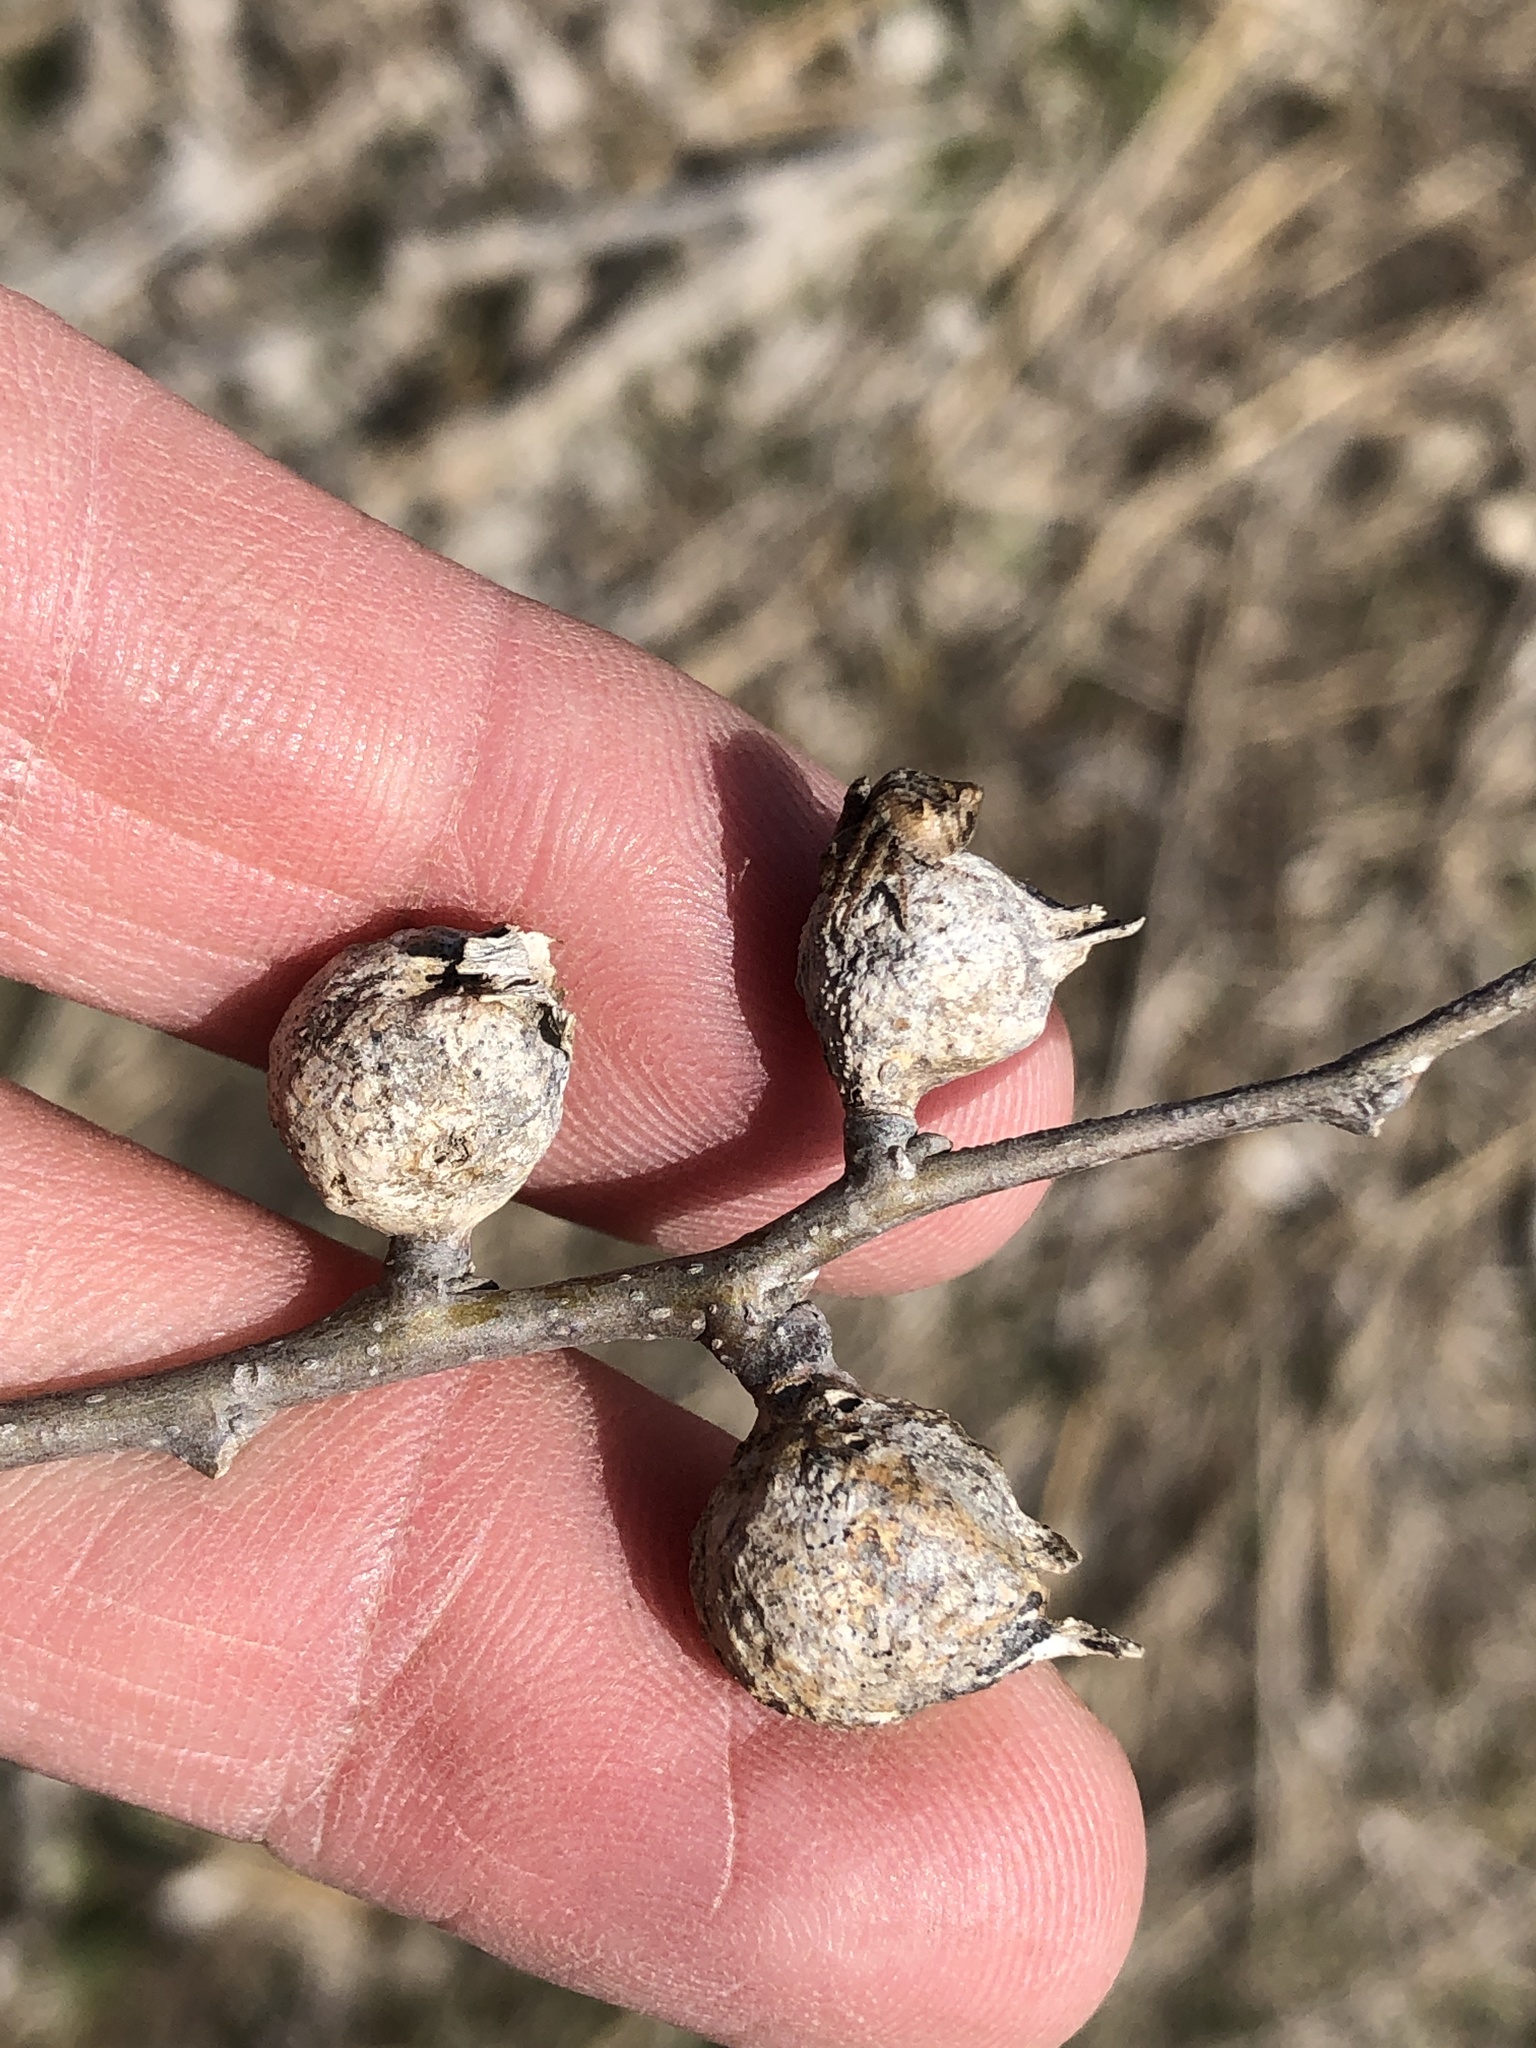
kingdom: Animalia
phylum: Arthropoda
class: Insecta
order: Hemiptera
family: Aphalaridae
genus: Pachypsylla
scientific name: Pachypsylla venusta
